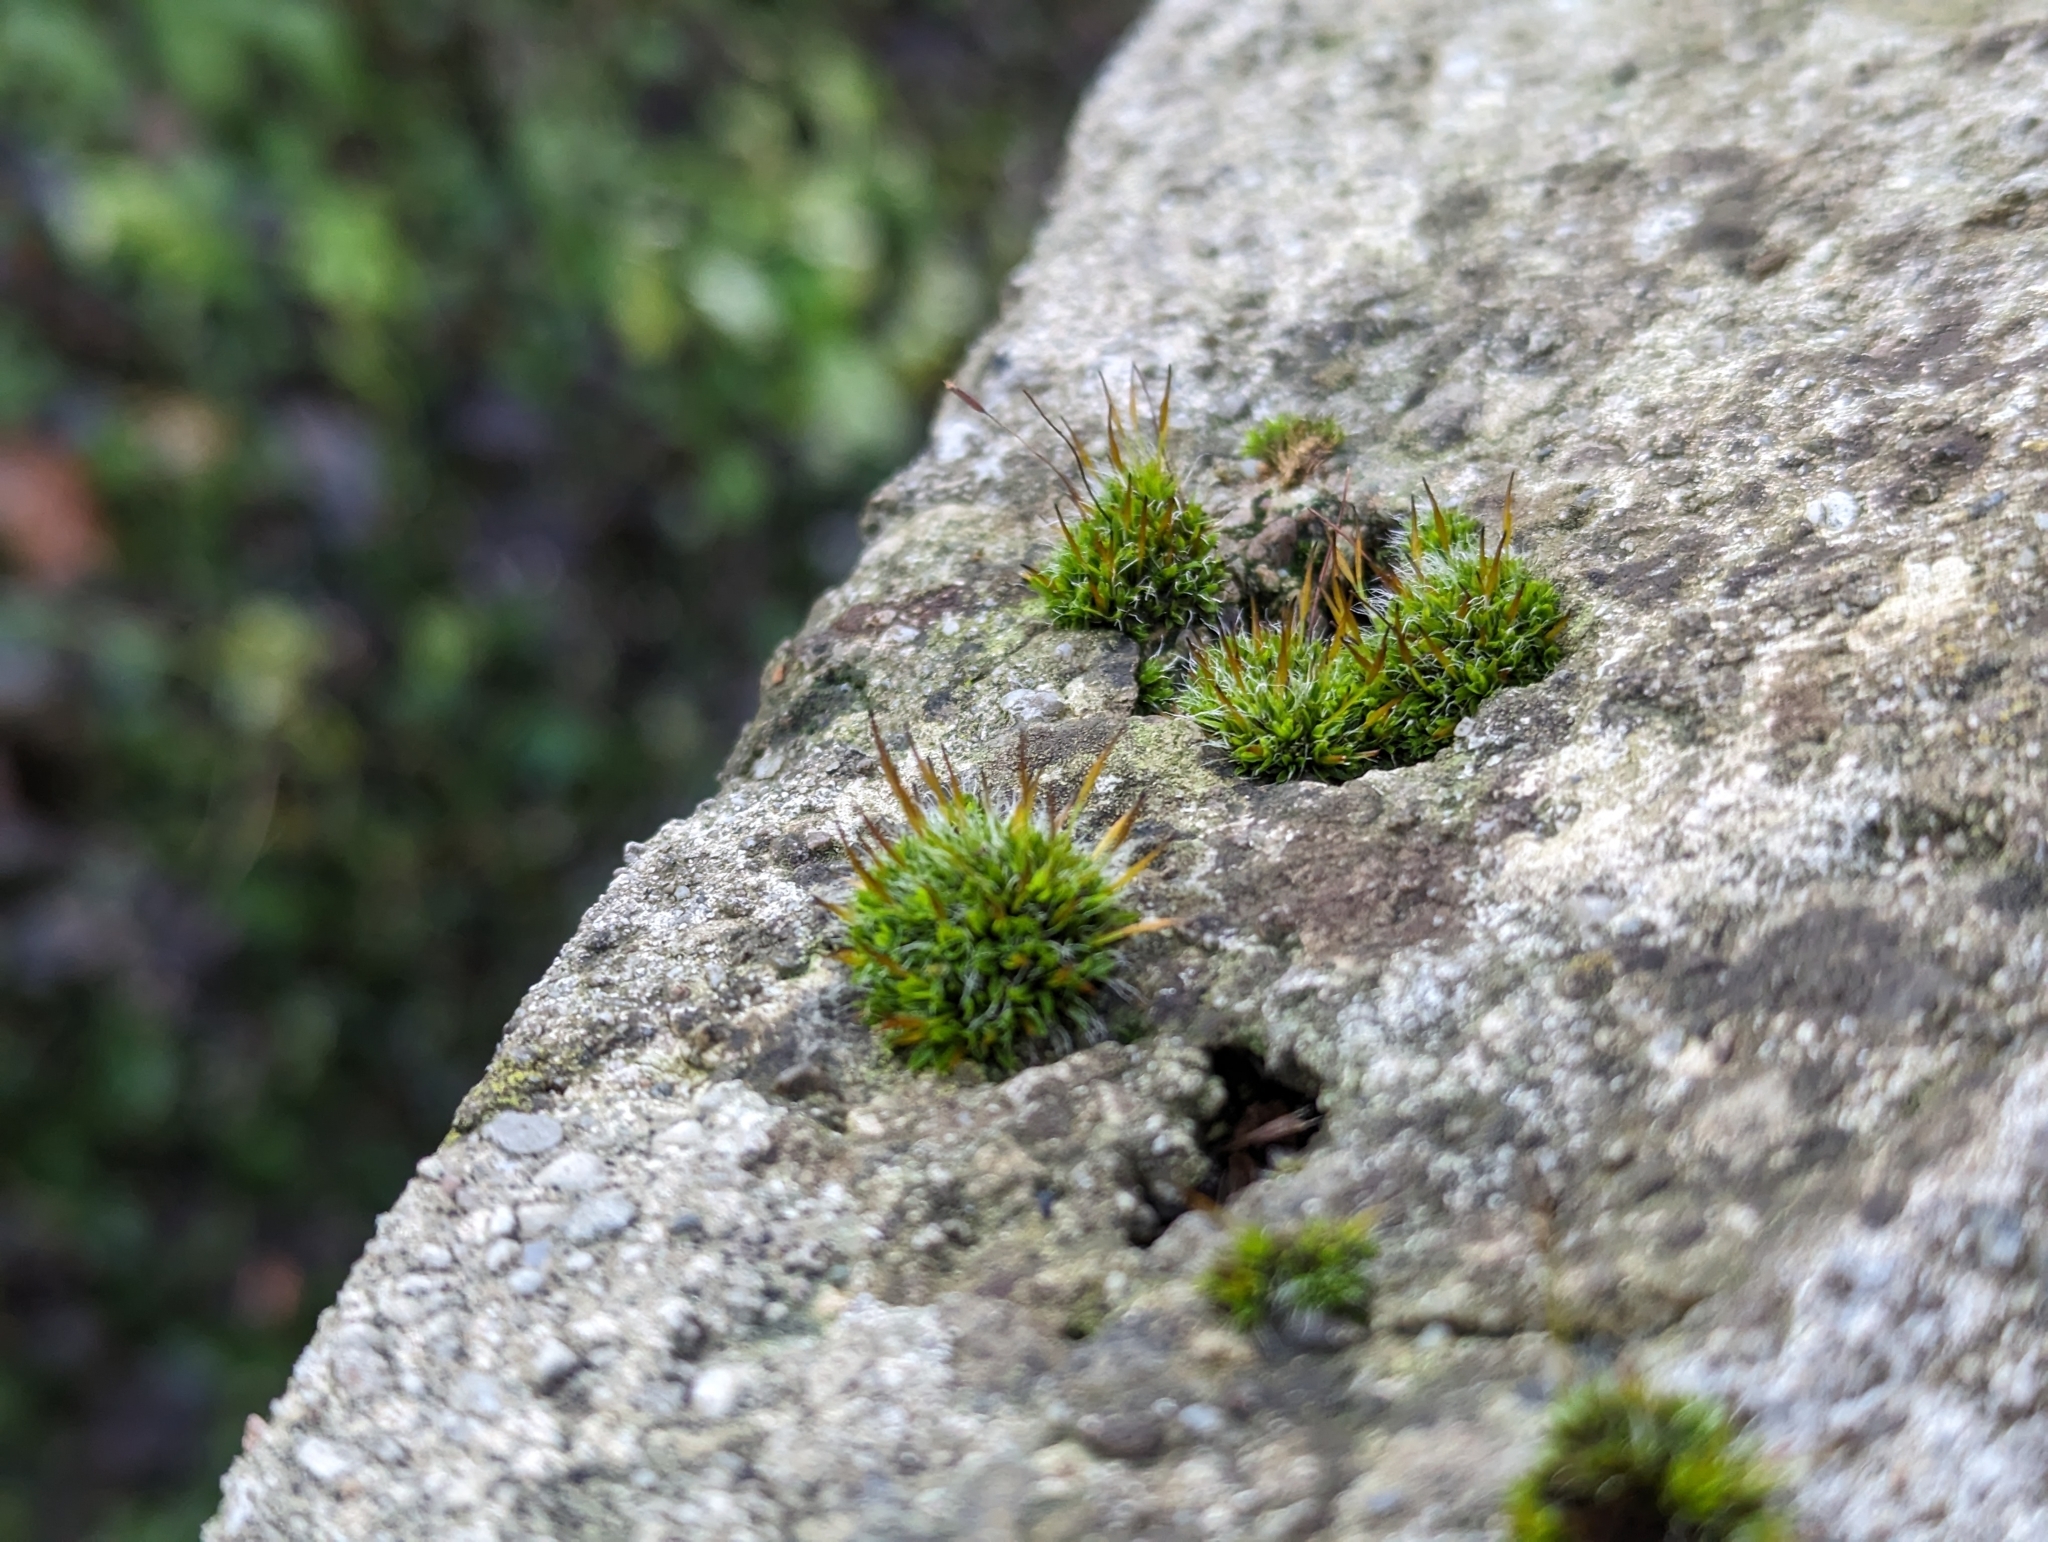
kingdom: Plantae
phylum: Bryophyta
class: Bryopsida
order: Pottiales
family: Pottiaceae
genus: Tortula
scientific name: Tortula muralis
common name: Wall screw-moss
